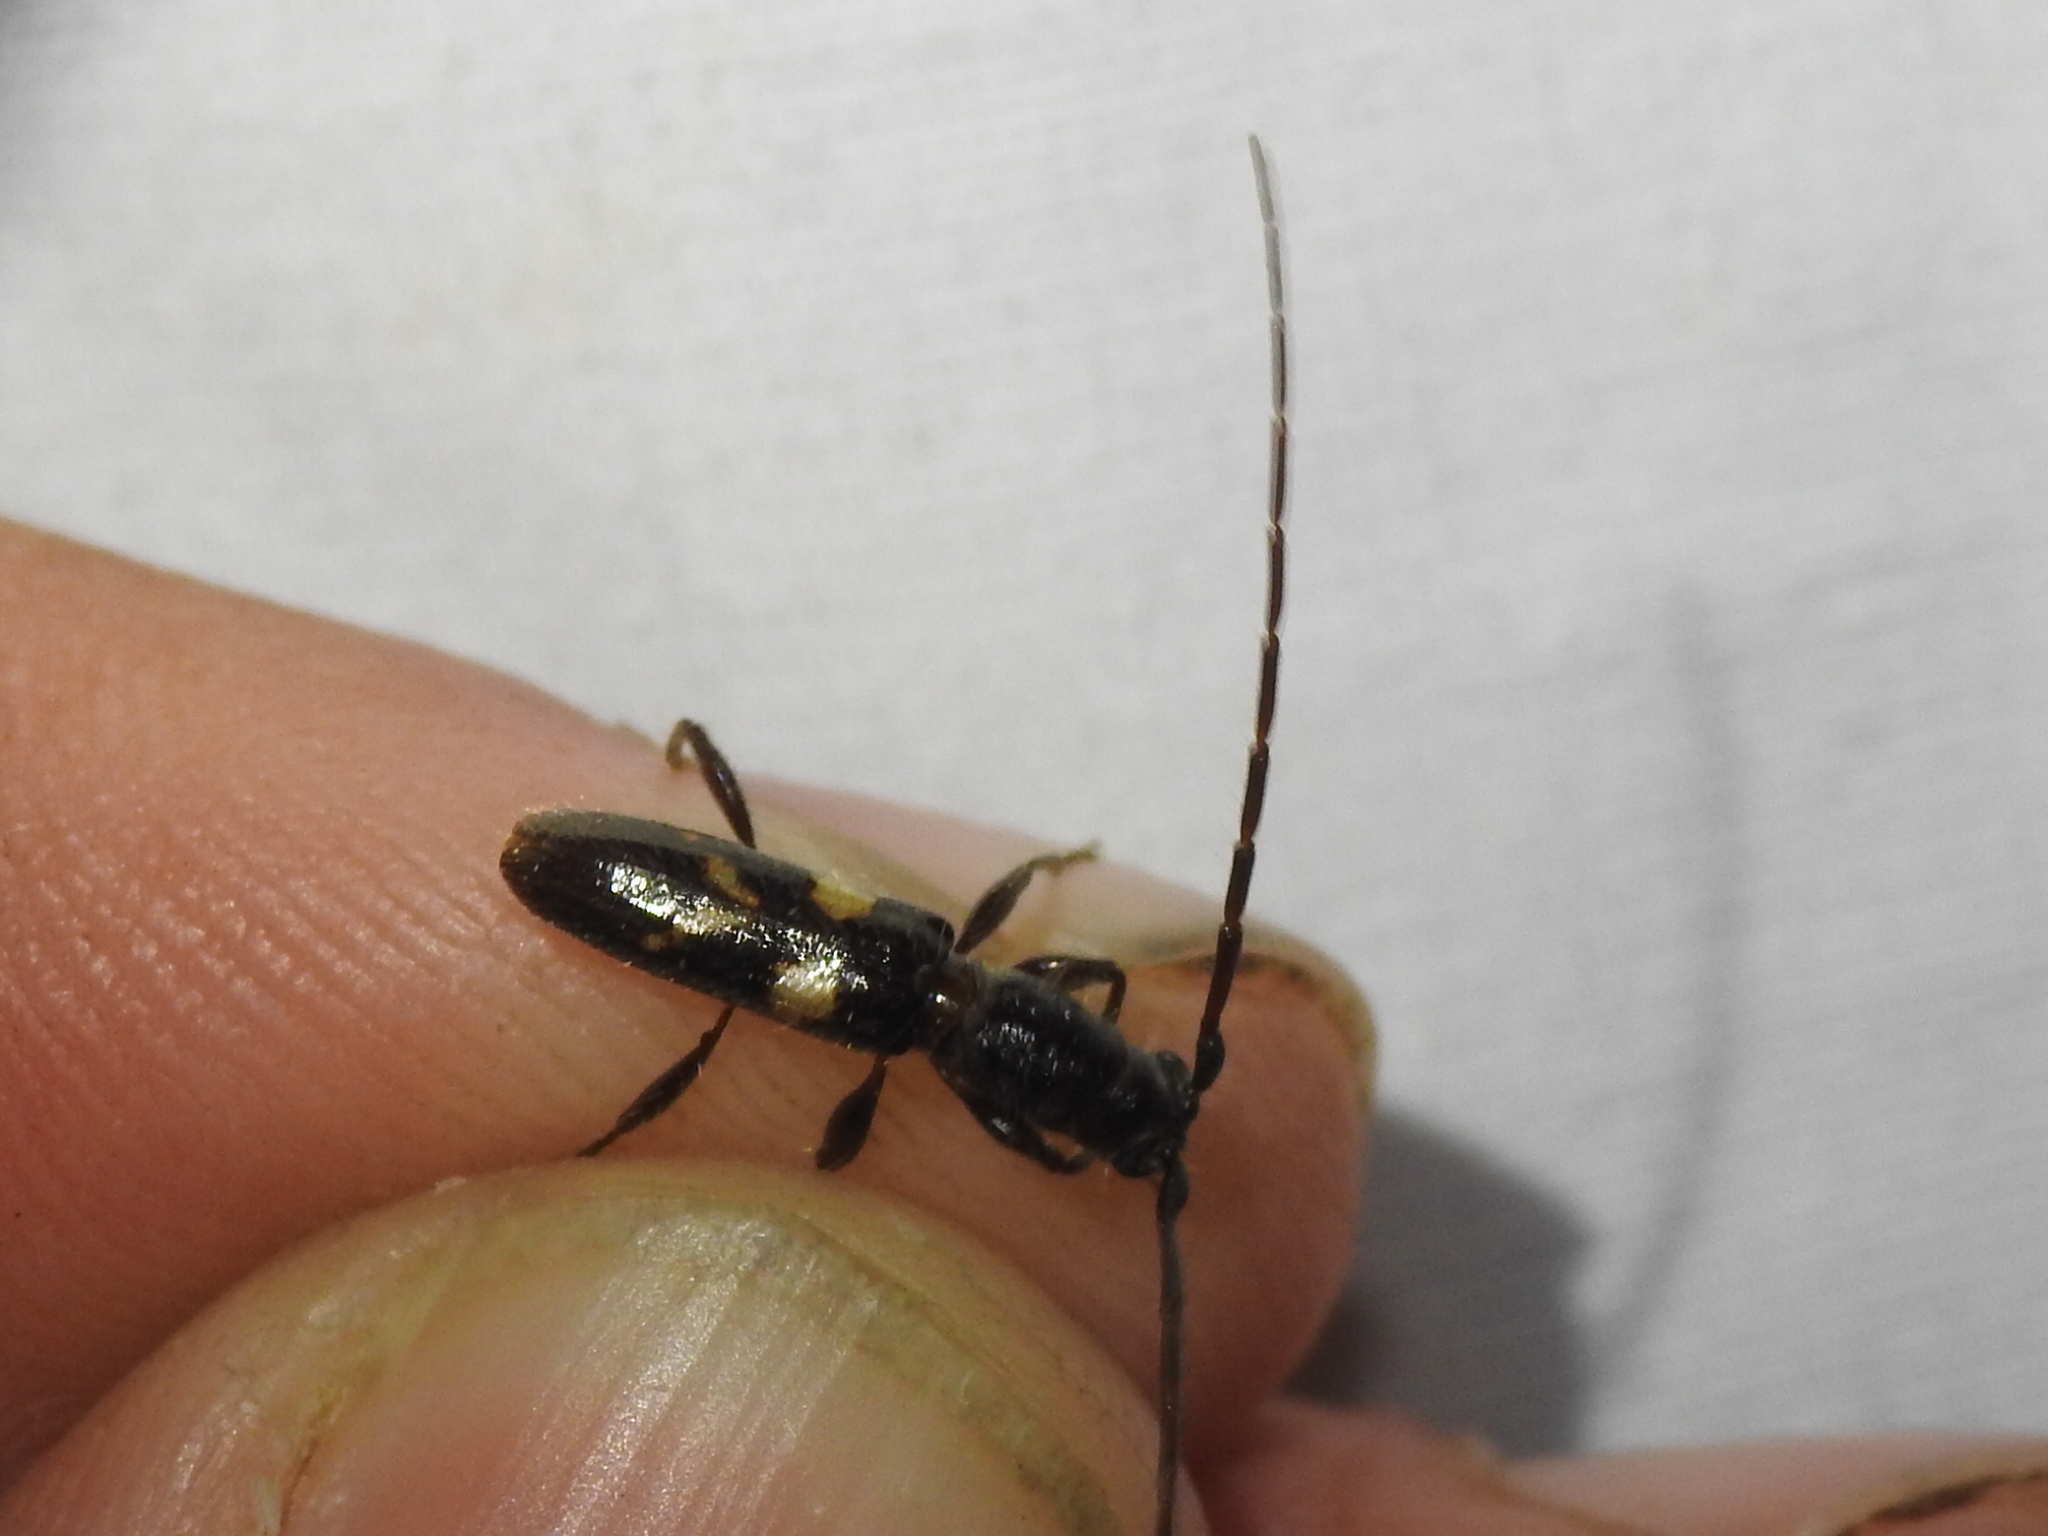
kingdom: Animalia
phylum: Arthropoda
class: Insecta
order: Coleoptera
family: Cerambycidae
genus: Heterachthes
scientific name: Heterachthes nobilis
